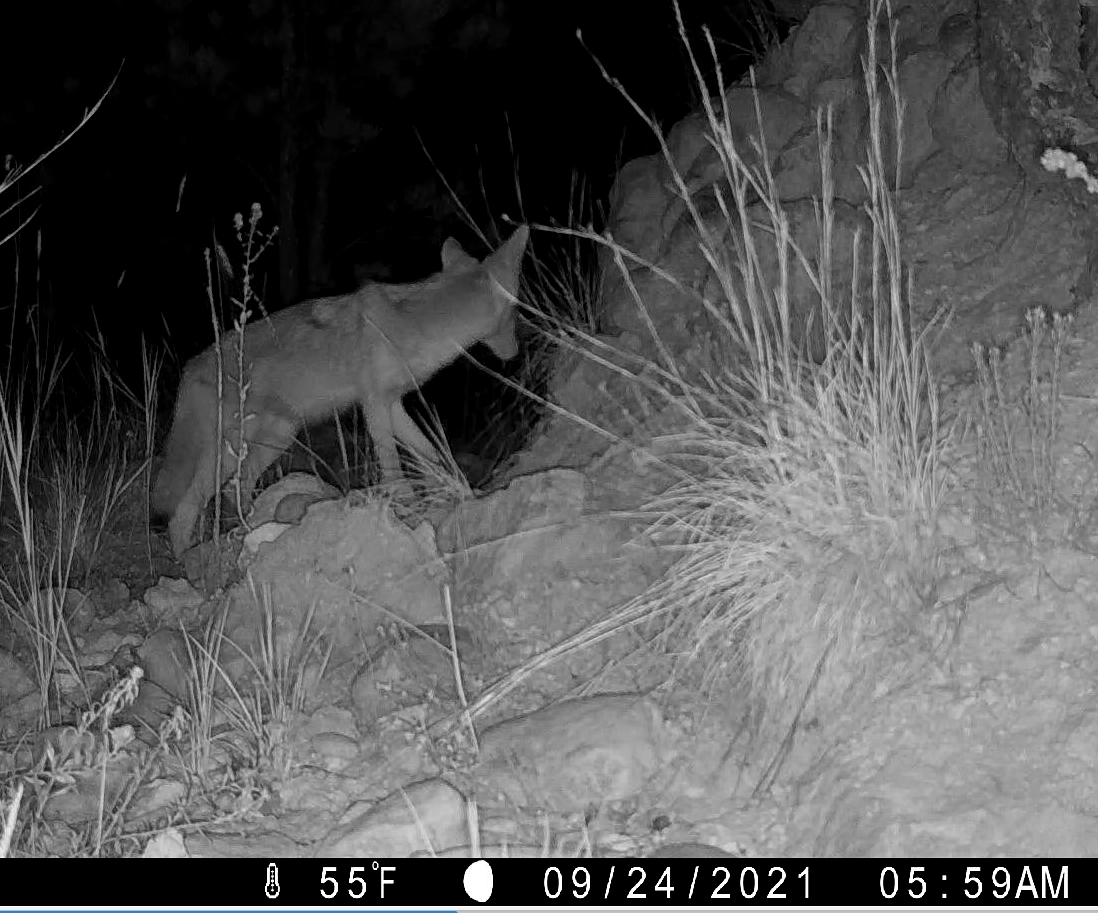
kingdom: Animalia
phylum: Chordata
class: Mammalia
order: Carnivora
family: Canidae
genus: Canis
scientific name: Canis latrans
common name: Coyote
